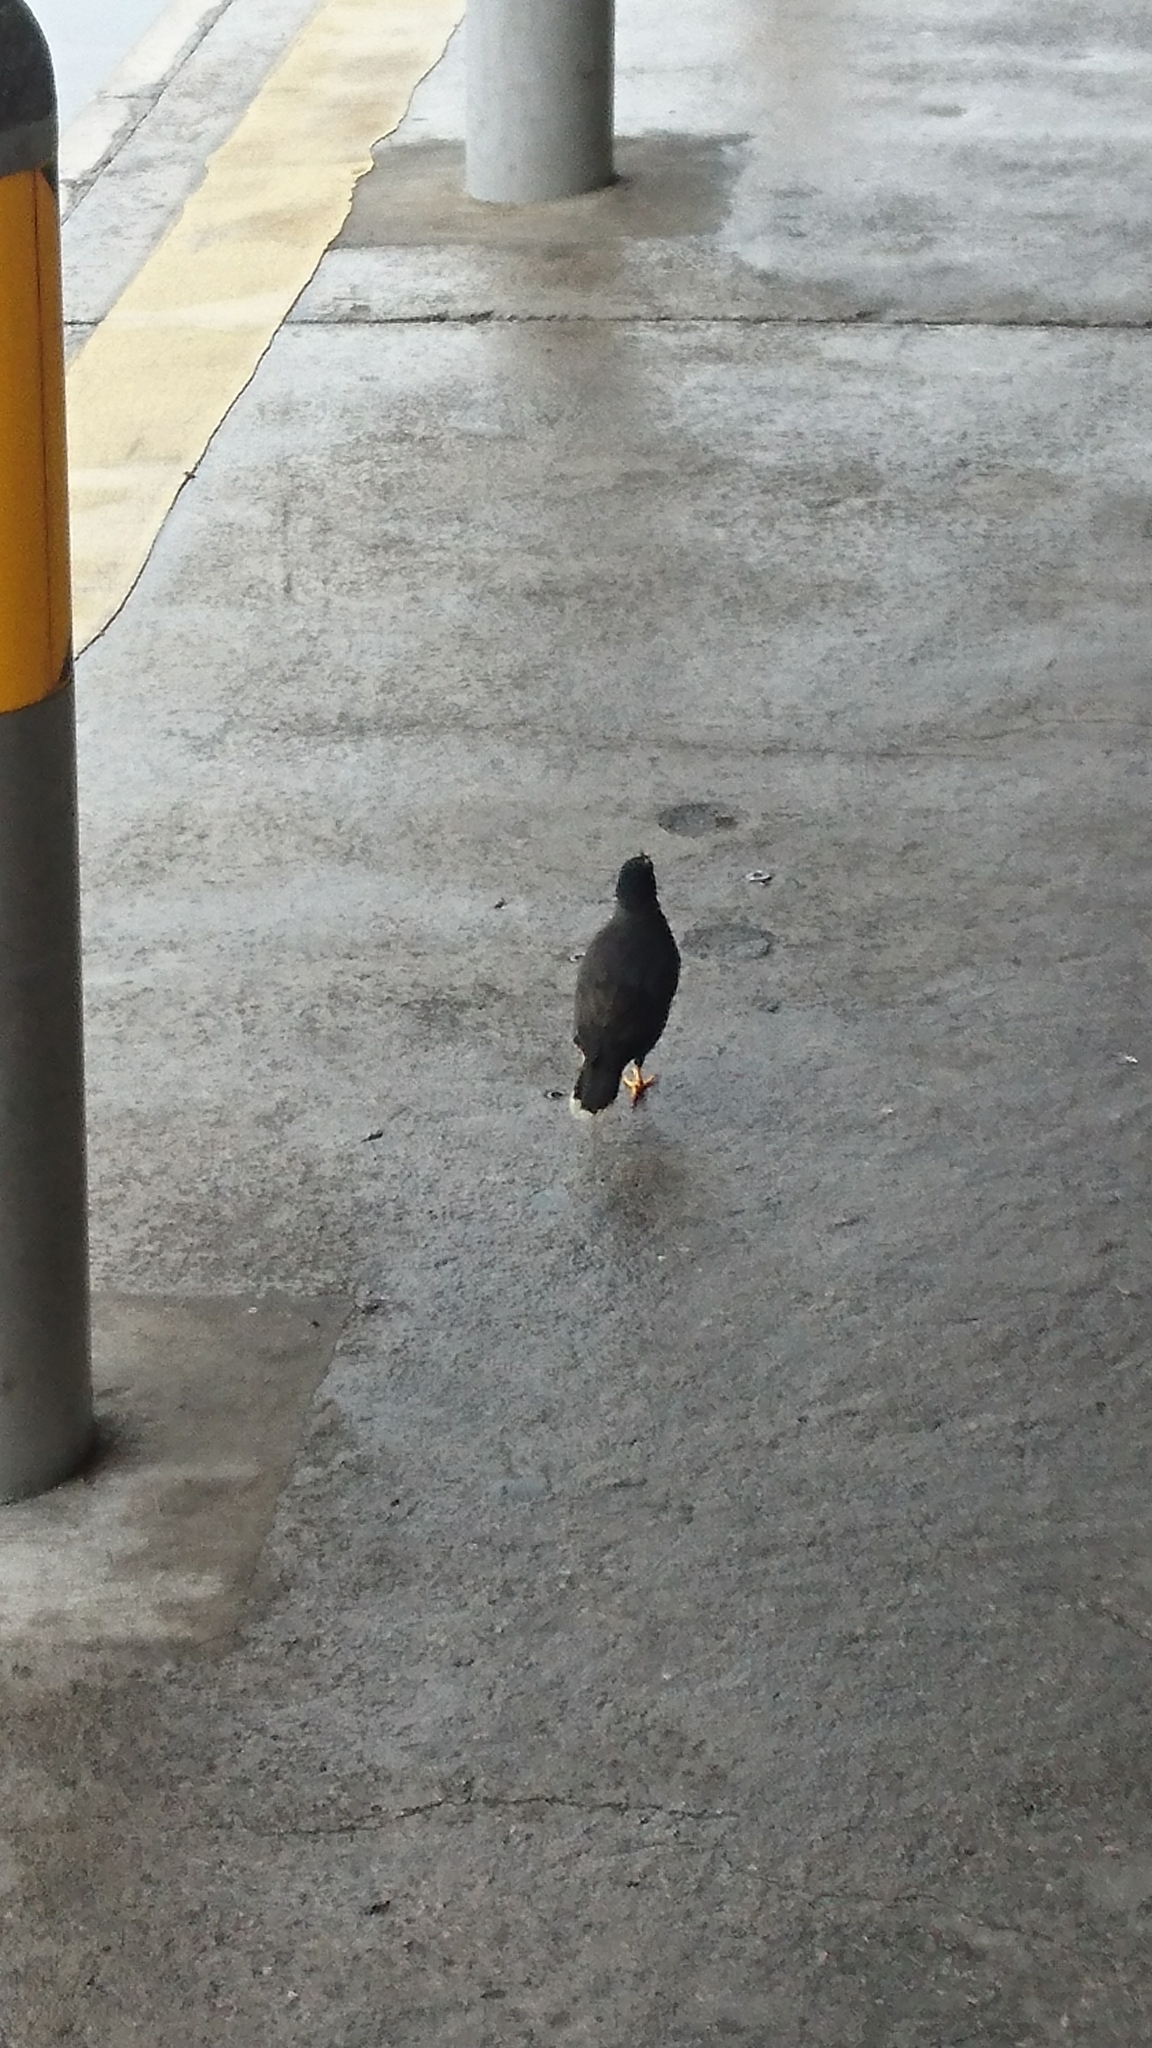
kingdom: Animalia
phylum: Chordata
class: Aves
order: Passeriformes
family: Sturnidae
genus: Acridotheres
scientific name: Acridotheres javanicus
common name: Javan myna
